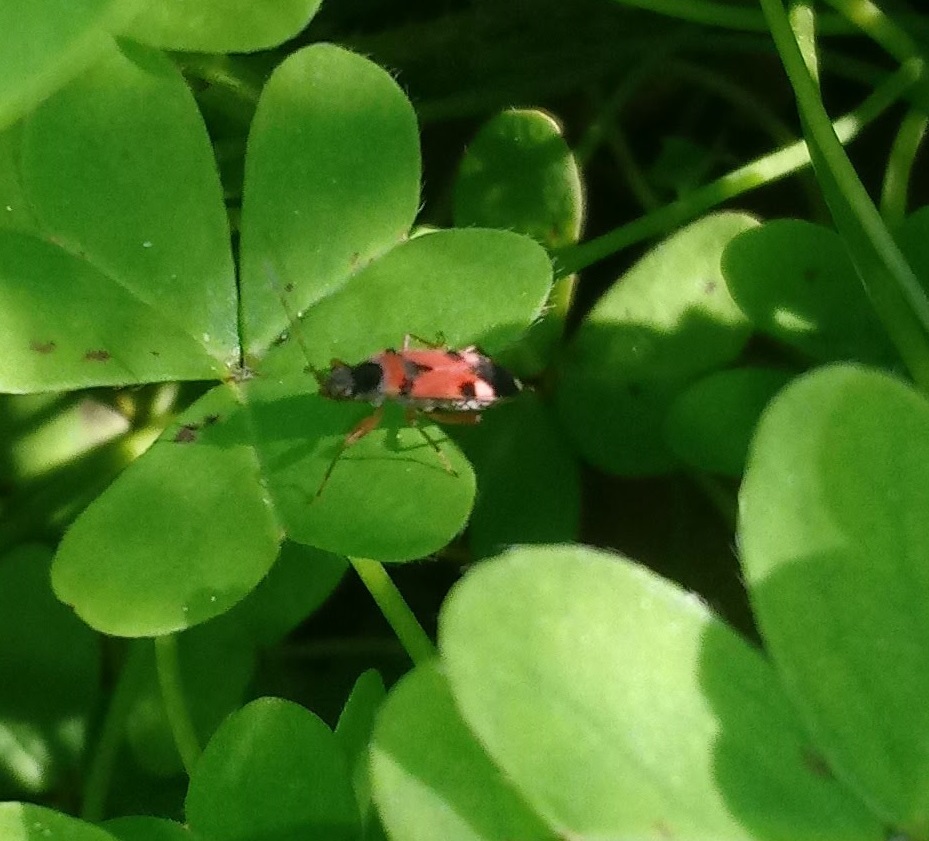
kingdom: Animalia
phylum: Arthropoda
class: Insecta
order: Hemiptera
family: Rhyparochromidae
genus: Beosus
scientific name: Beosus quadripunctatus
